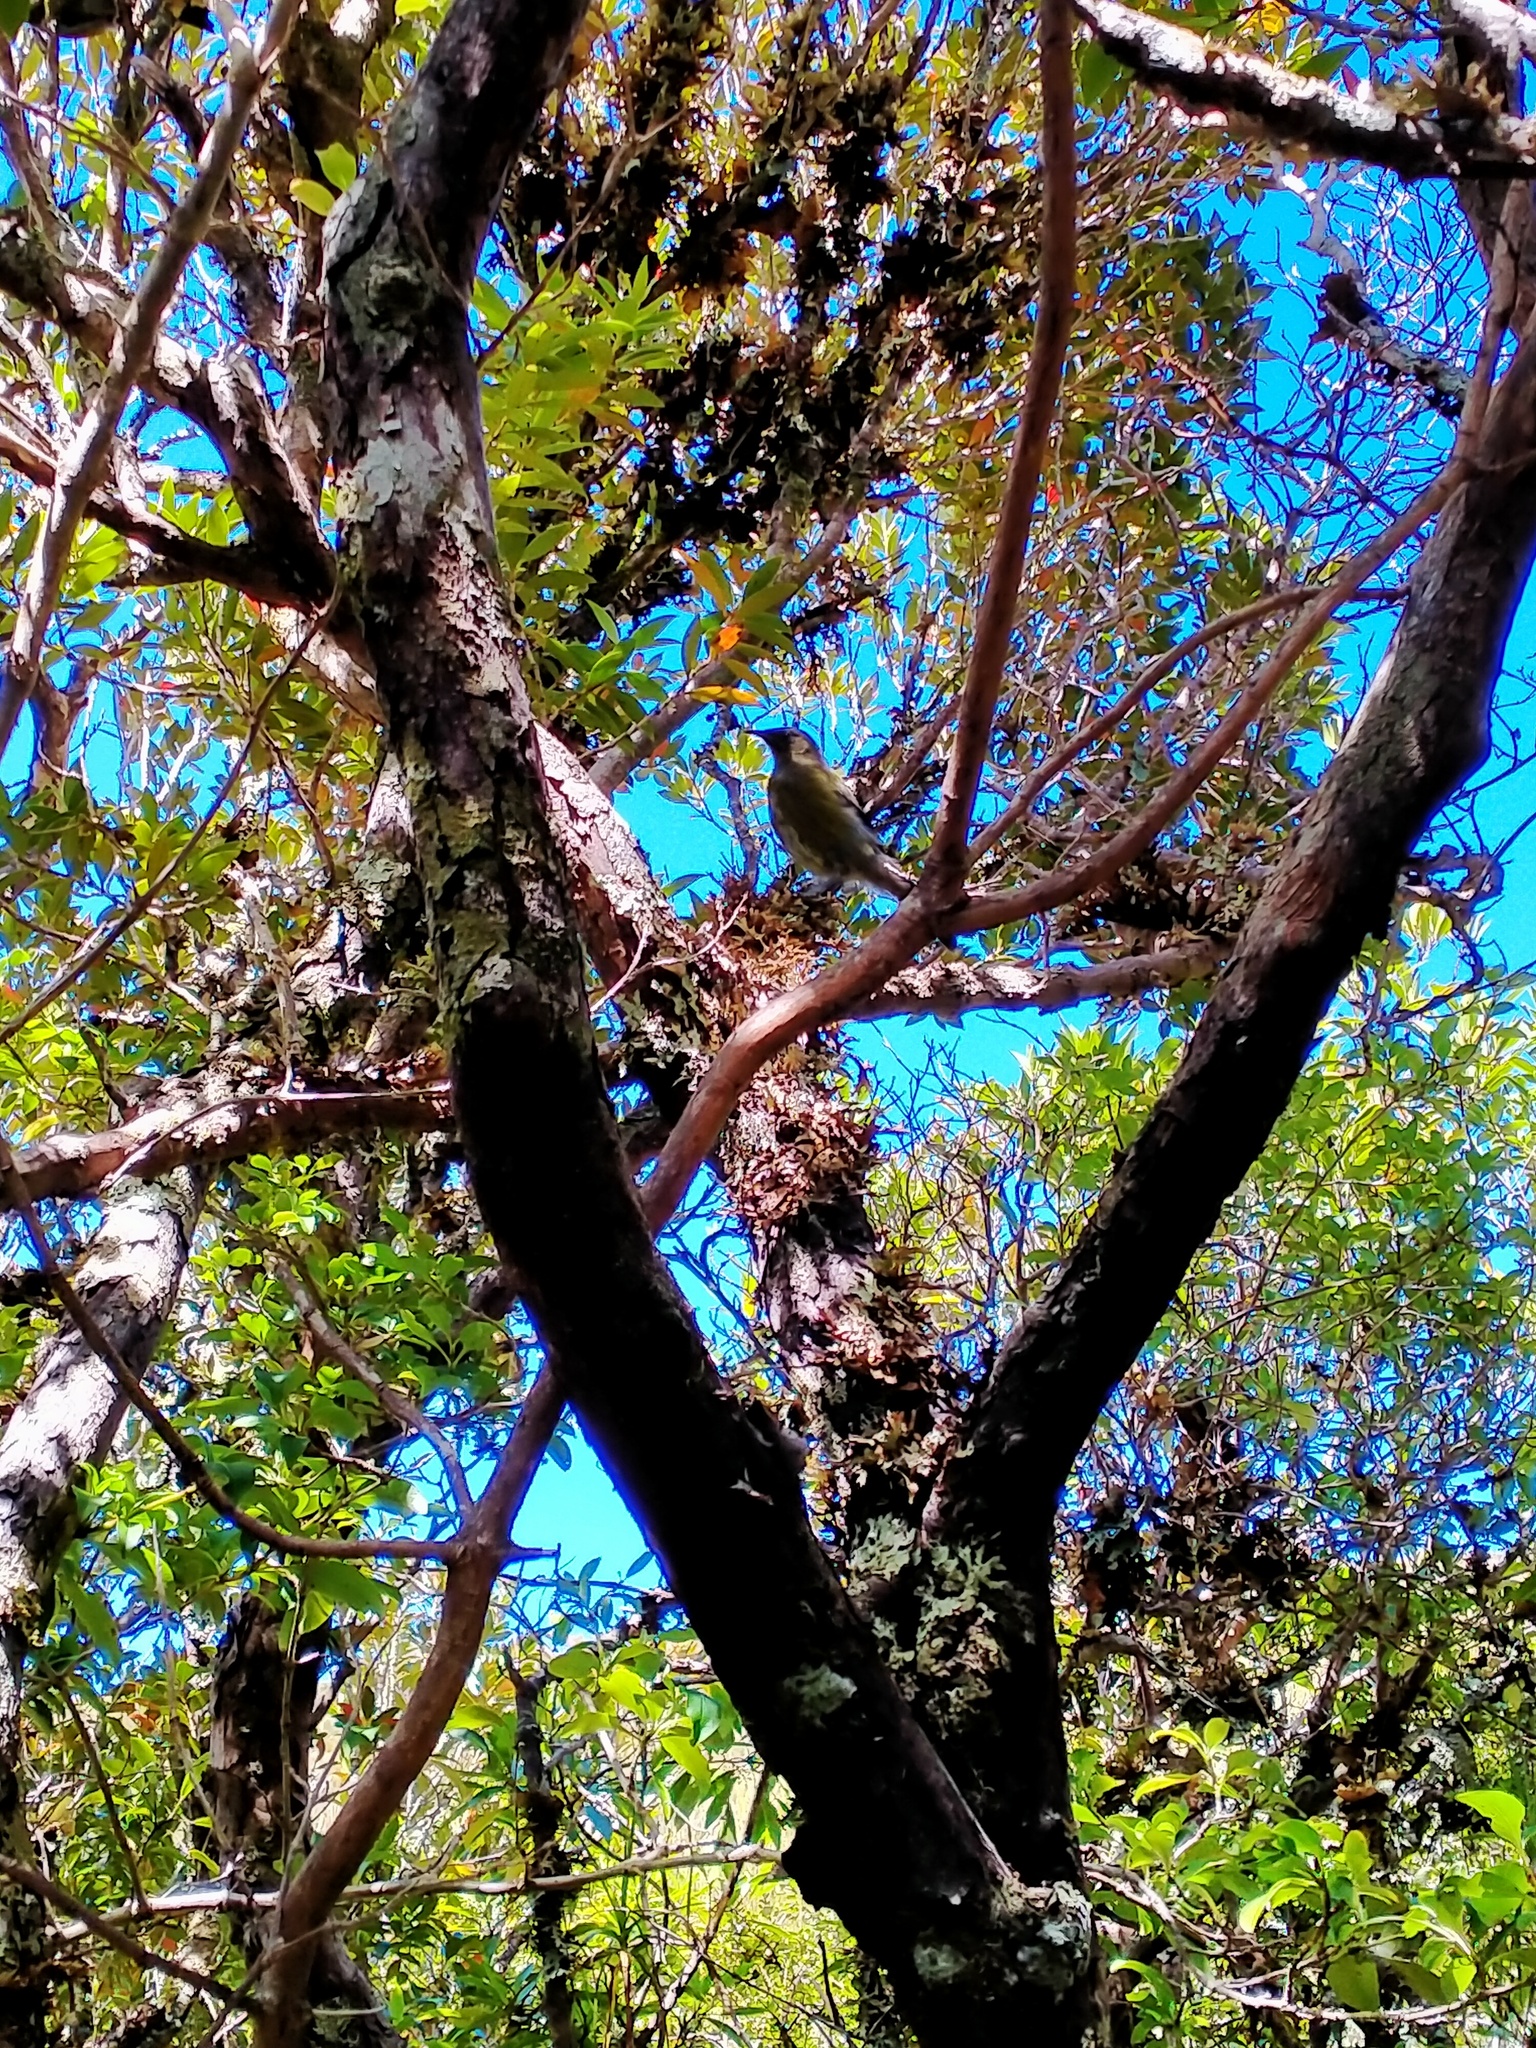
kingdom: Animalia
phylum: Chordata
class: Aves
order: Passeriformes
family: Meliphagidae
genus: Anthornis
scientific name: Anthornis melanura
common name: New zealand bellbird
